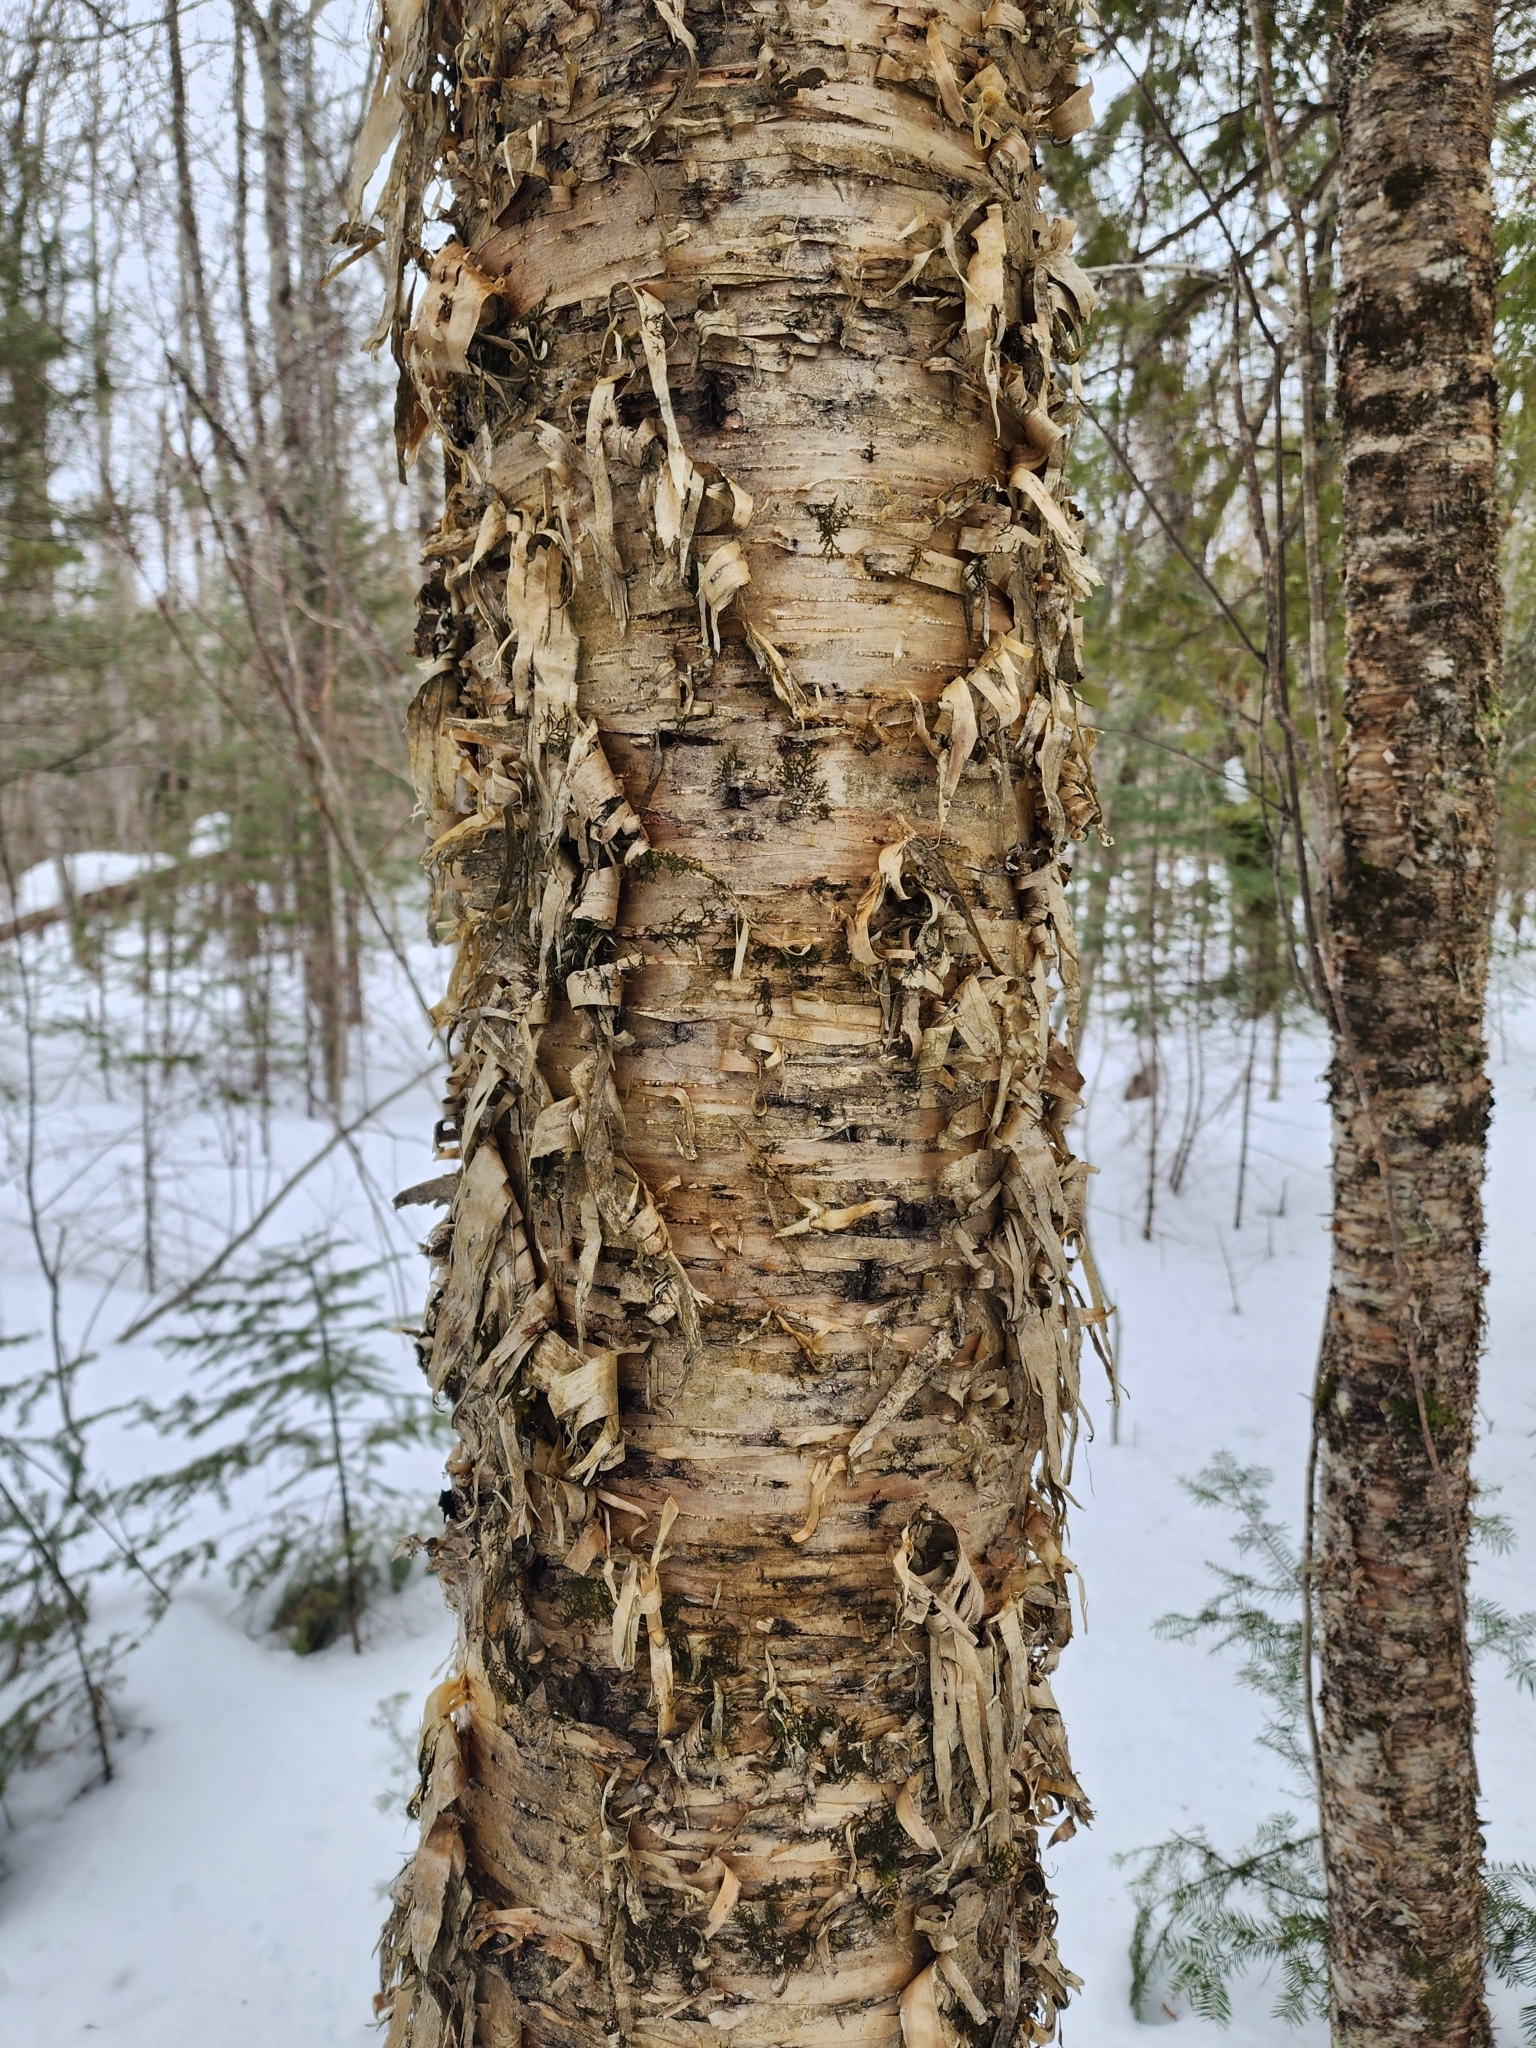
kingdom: Plantae
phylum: Tracheophyta
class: Magnoliopsida
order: Fagales
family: Betulaceae
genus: Betula
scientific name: Betula alleghaniensis
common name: Yellow birch
